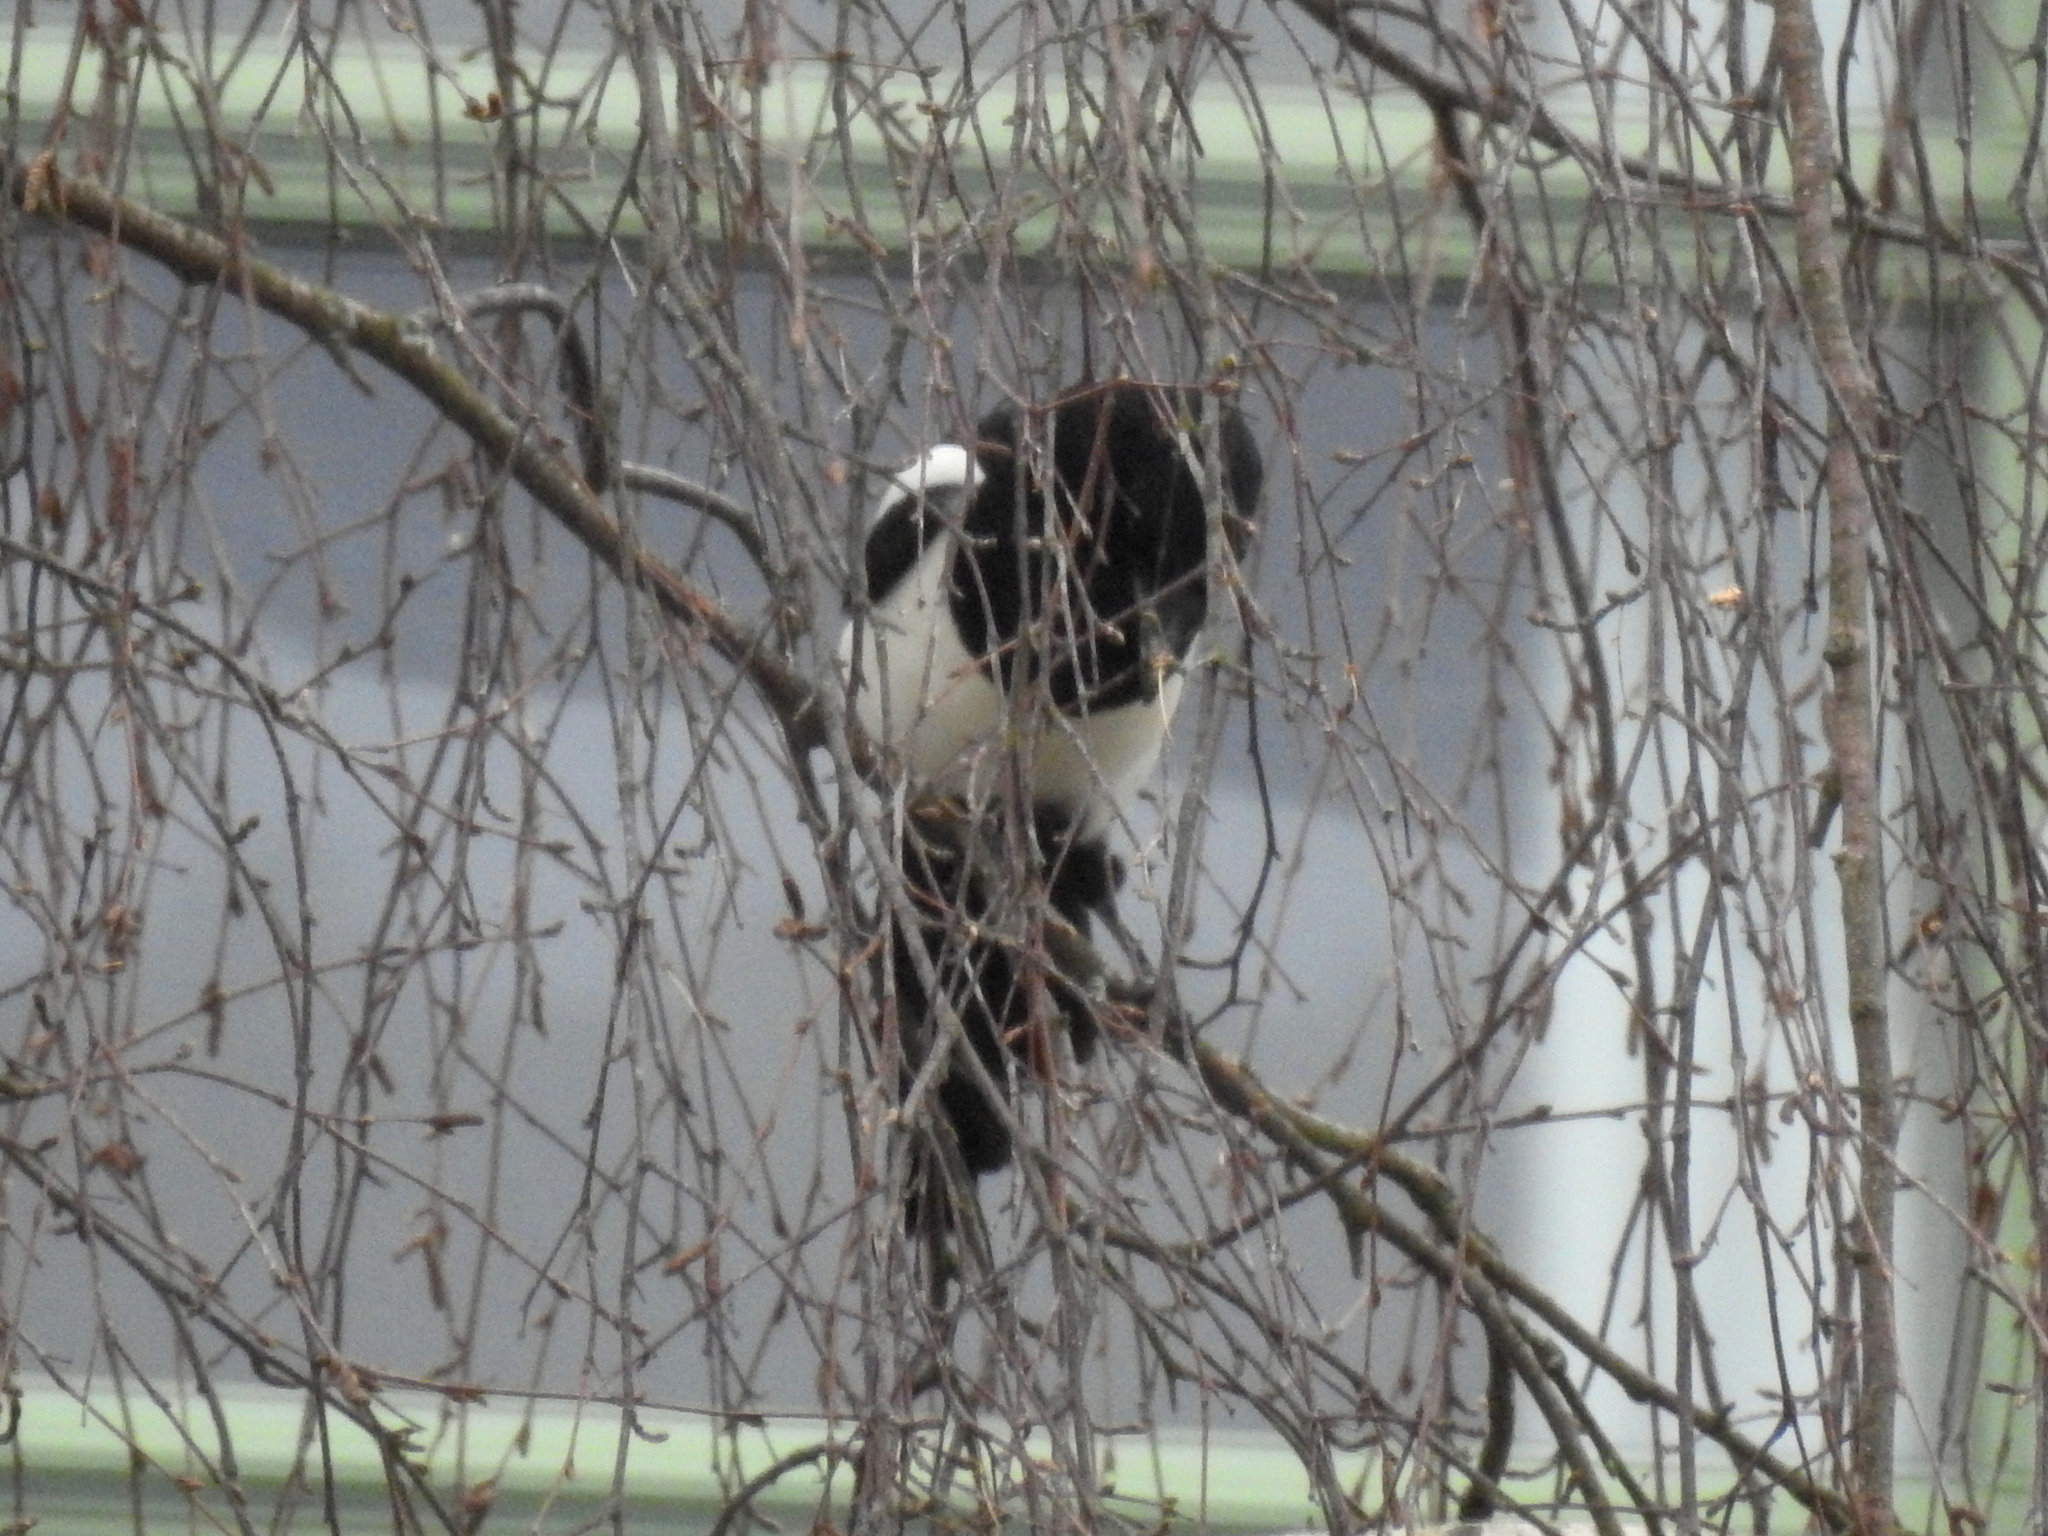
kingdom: Animalia
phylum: Chordata
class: Aves
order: Passeriformes
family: Corvidae
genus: Pica
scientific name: Pica pica
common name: Eurasian magpie
